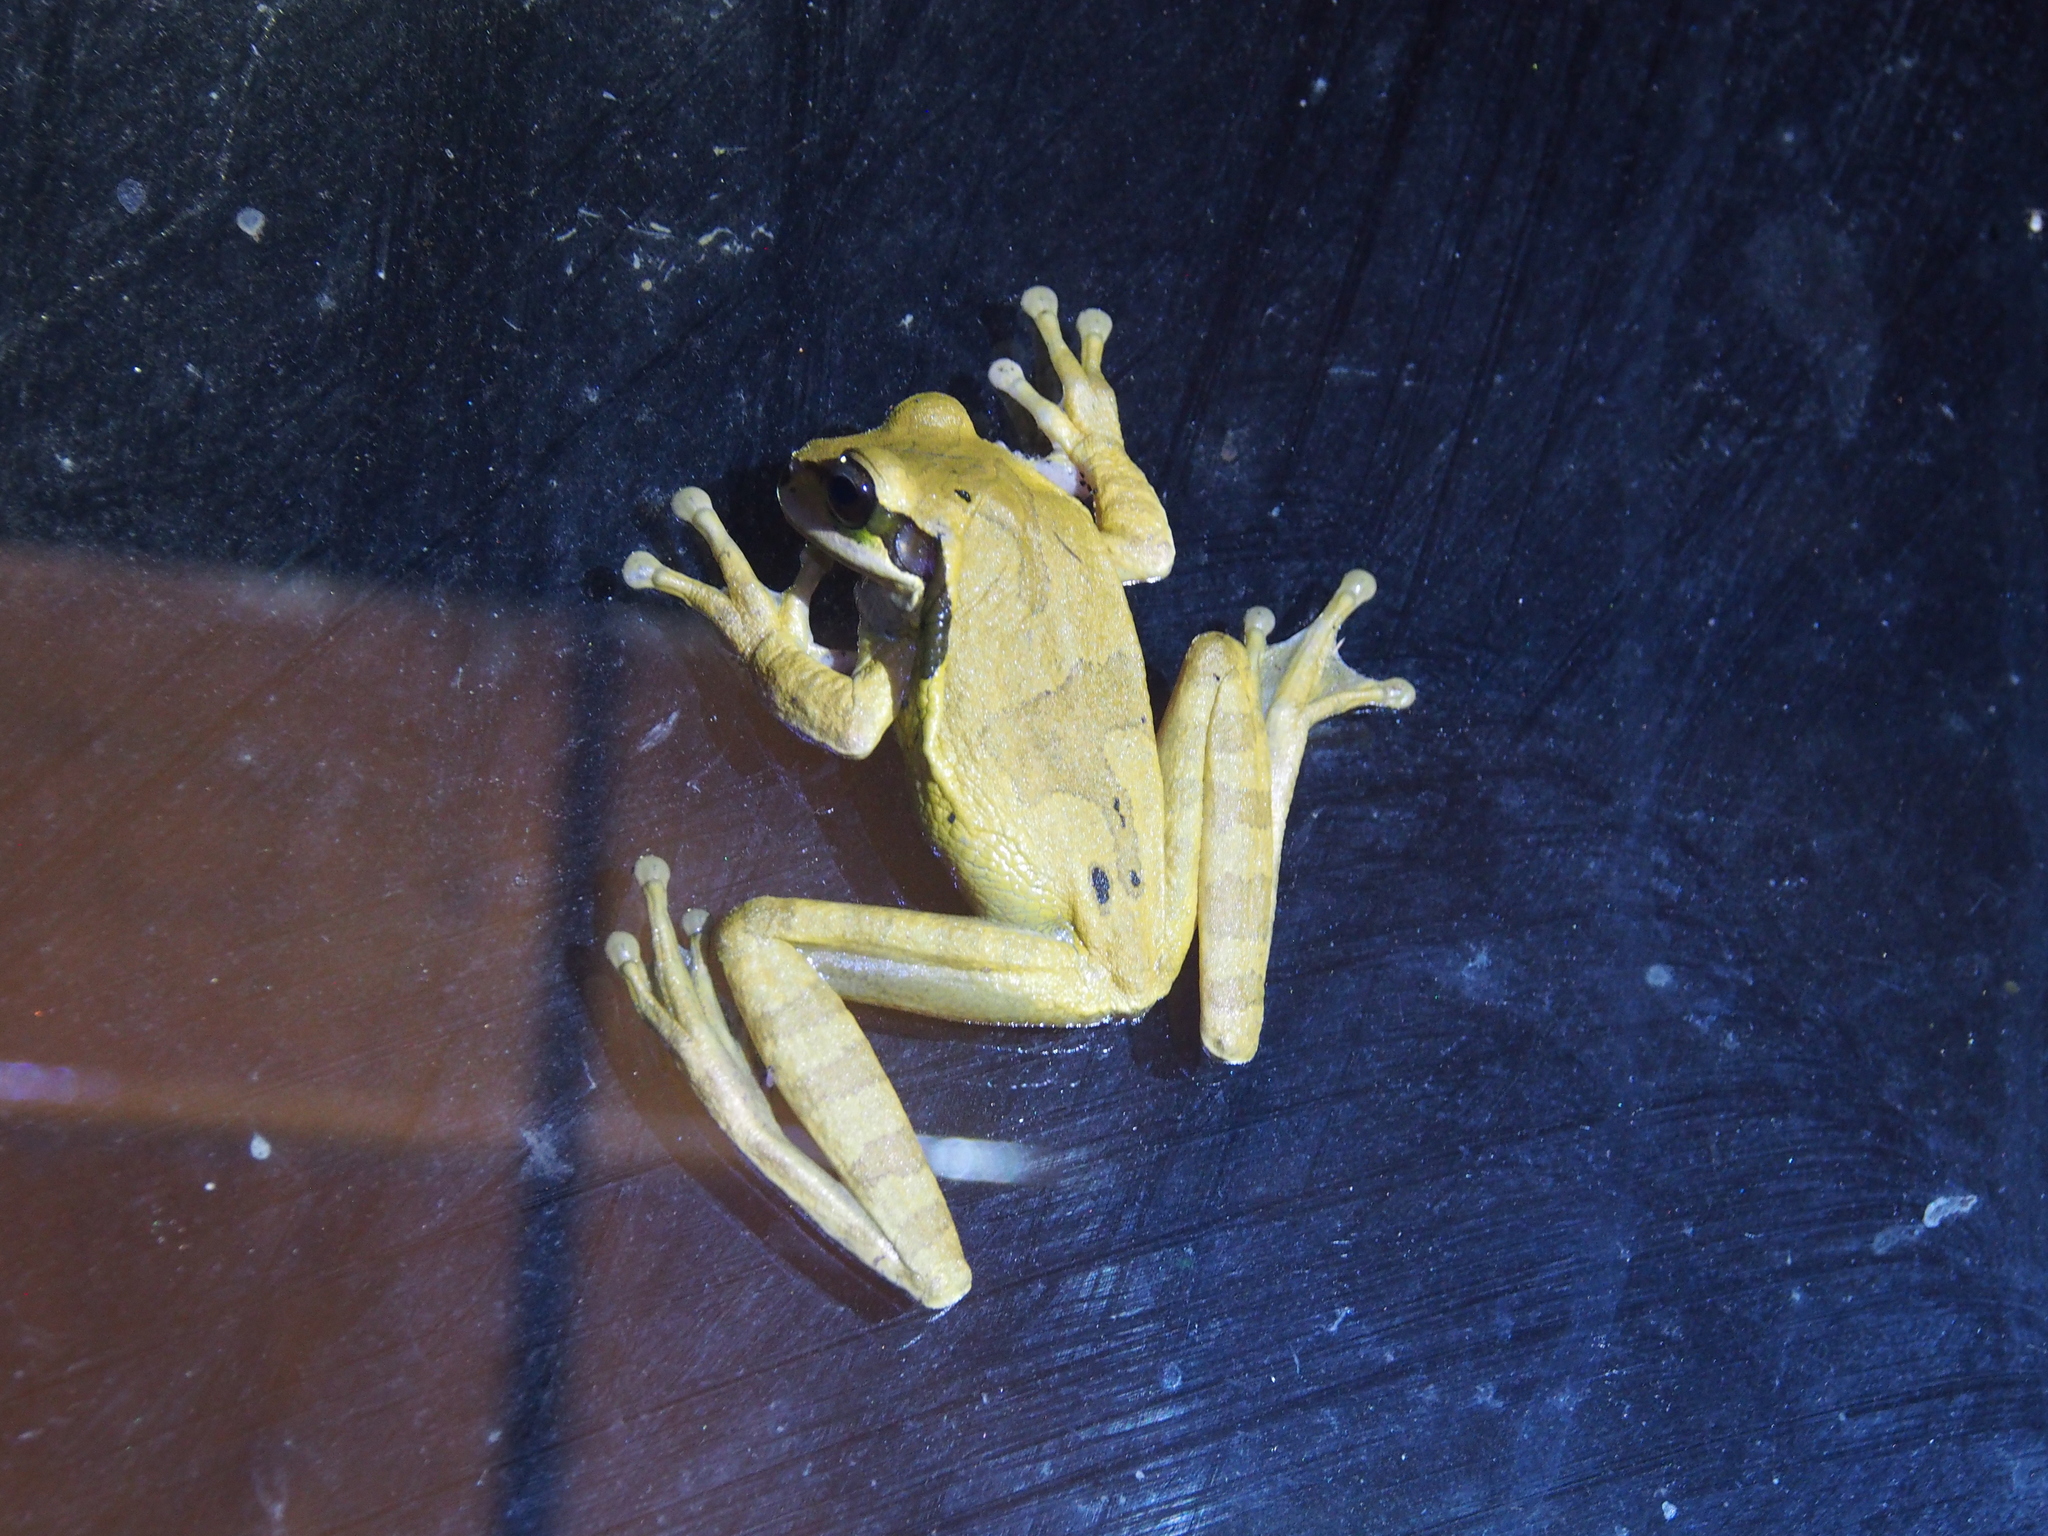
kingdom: Animalia
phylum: Chordata
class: Amphibia
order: Anura
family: Hylidae
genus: Smilisca
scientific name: Smilisca phaeota
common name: Central american smilisca
